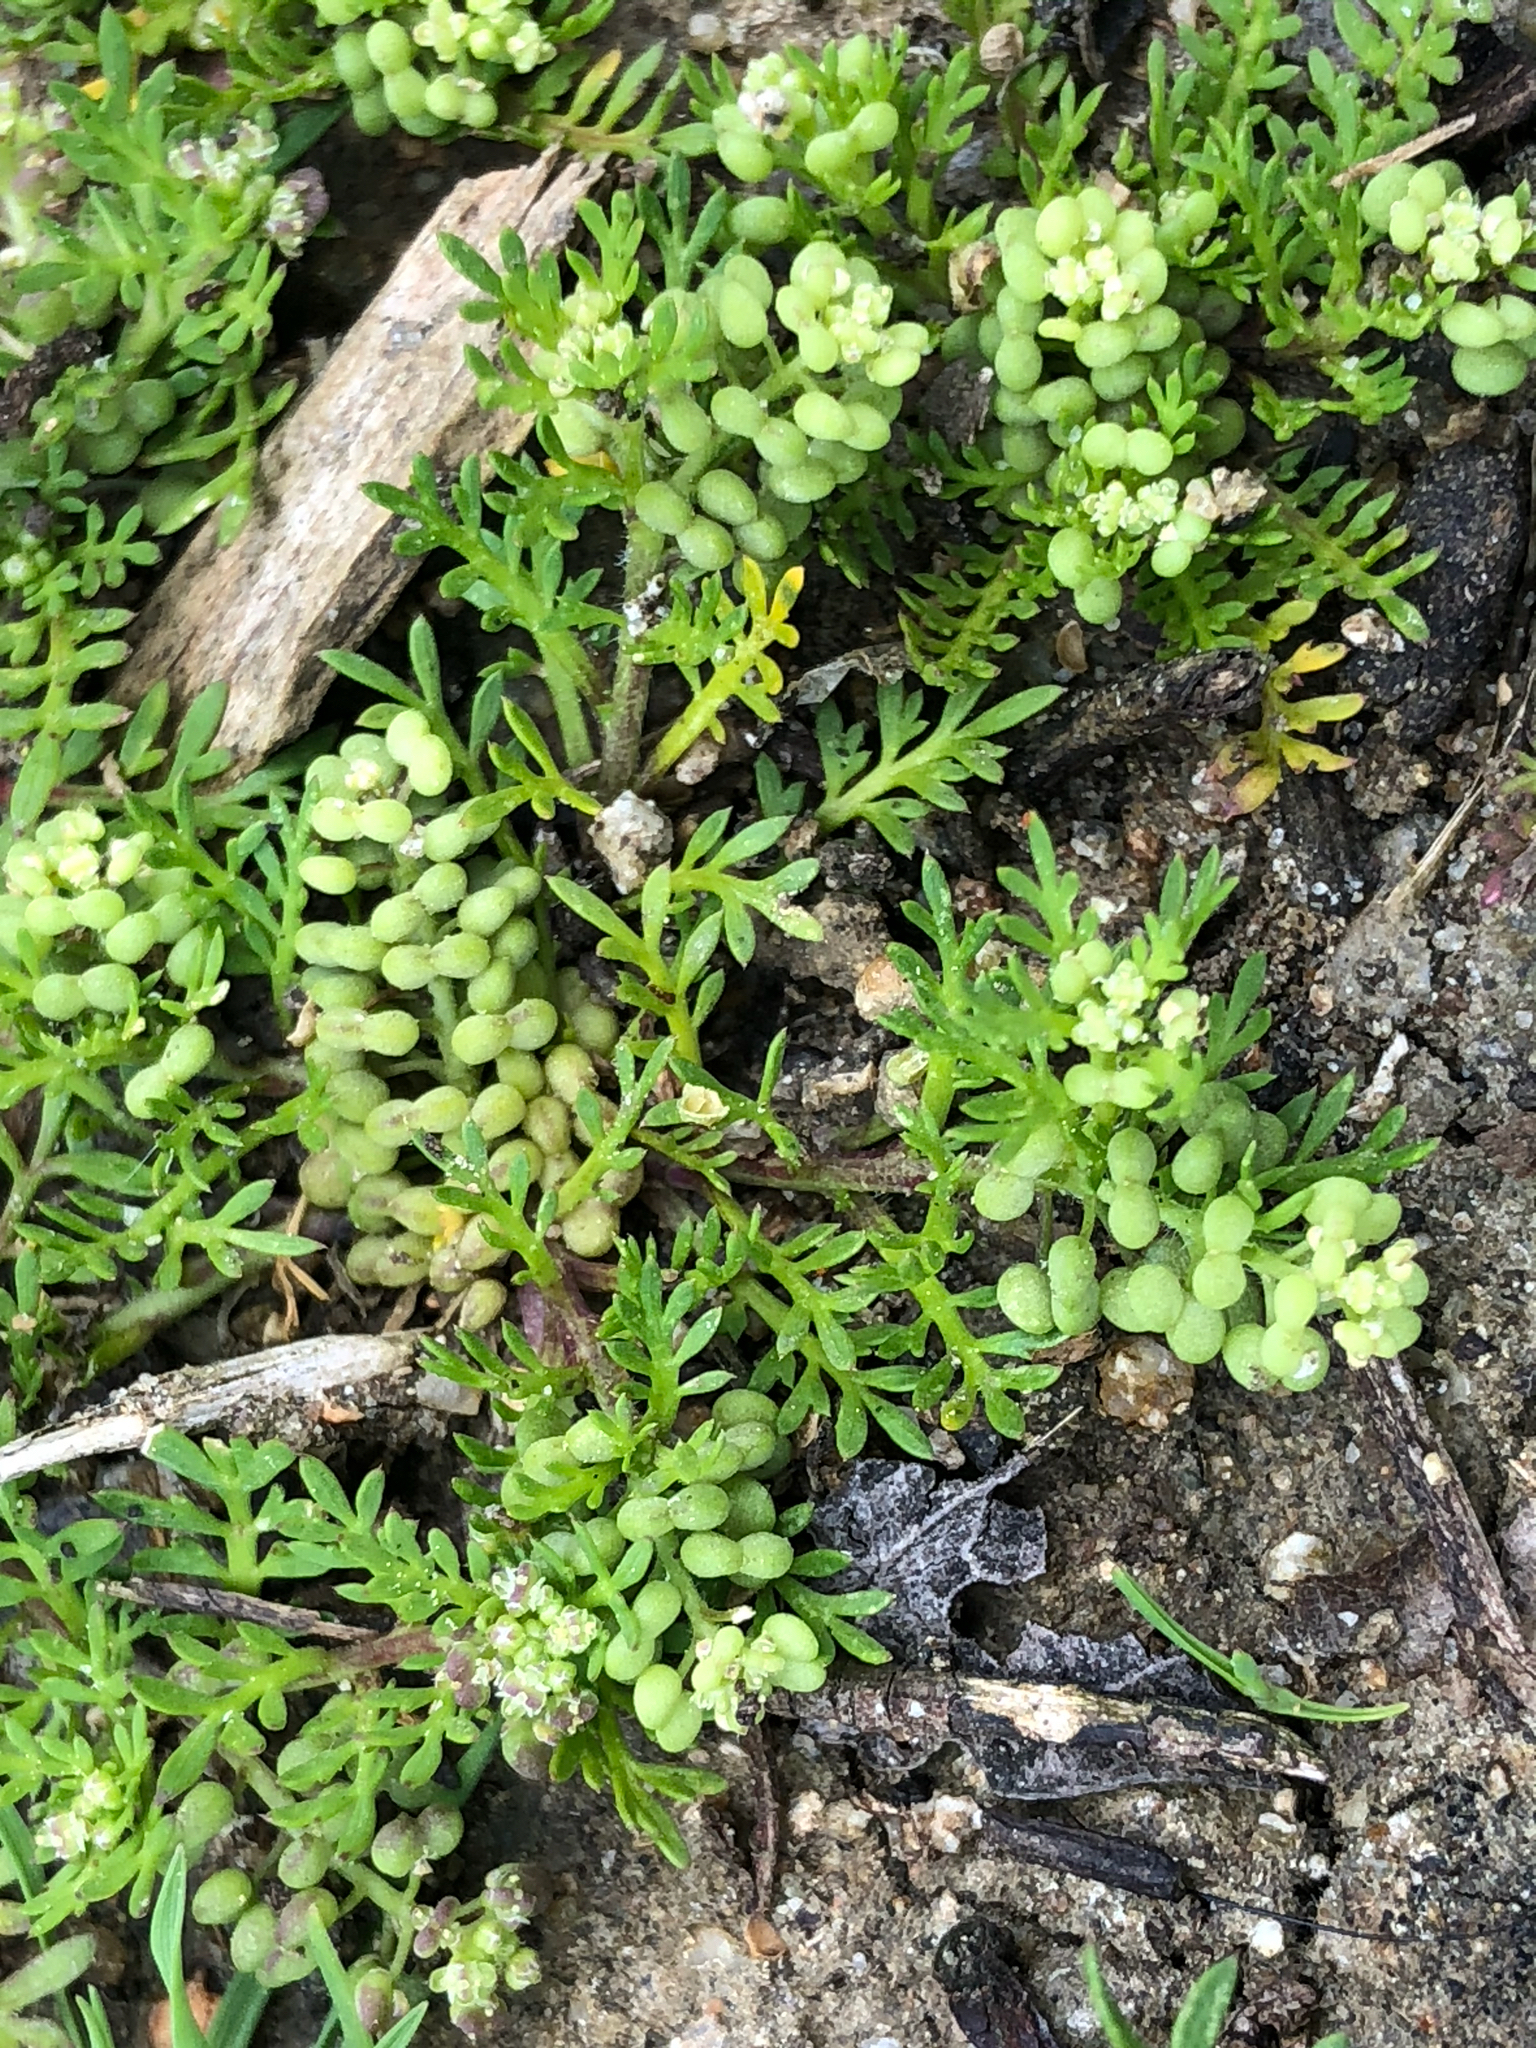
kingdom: Plantae
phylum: Tracheophyta
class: Magnoliopsida
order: Brassicales
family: Brassicaceae
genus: Lepidium
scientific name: Lepidium didymum
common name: Lesser swinecress
